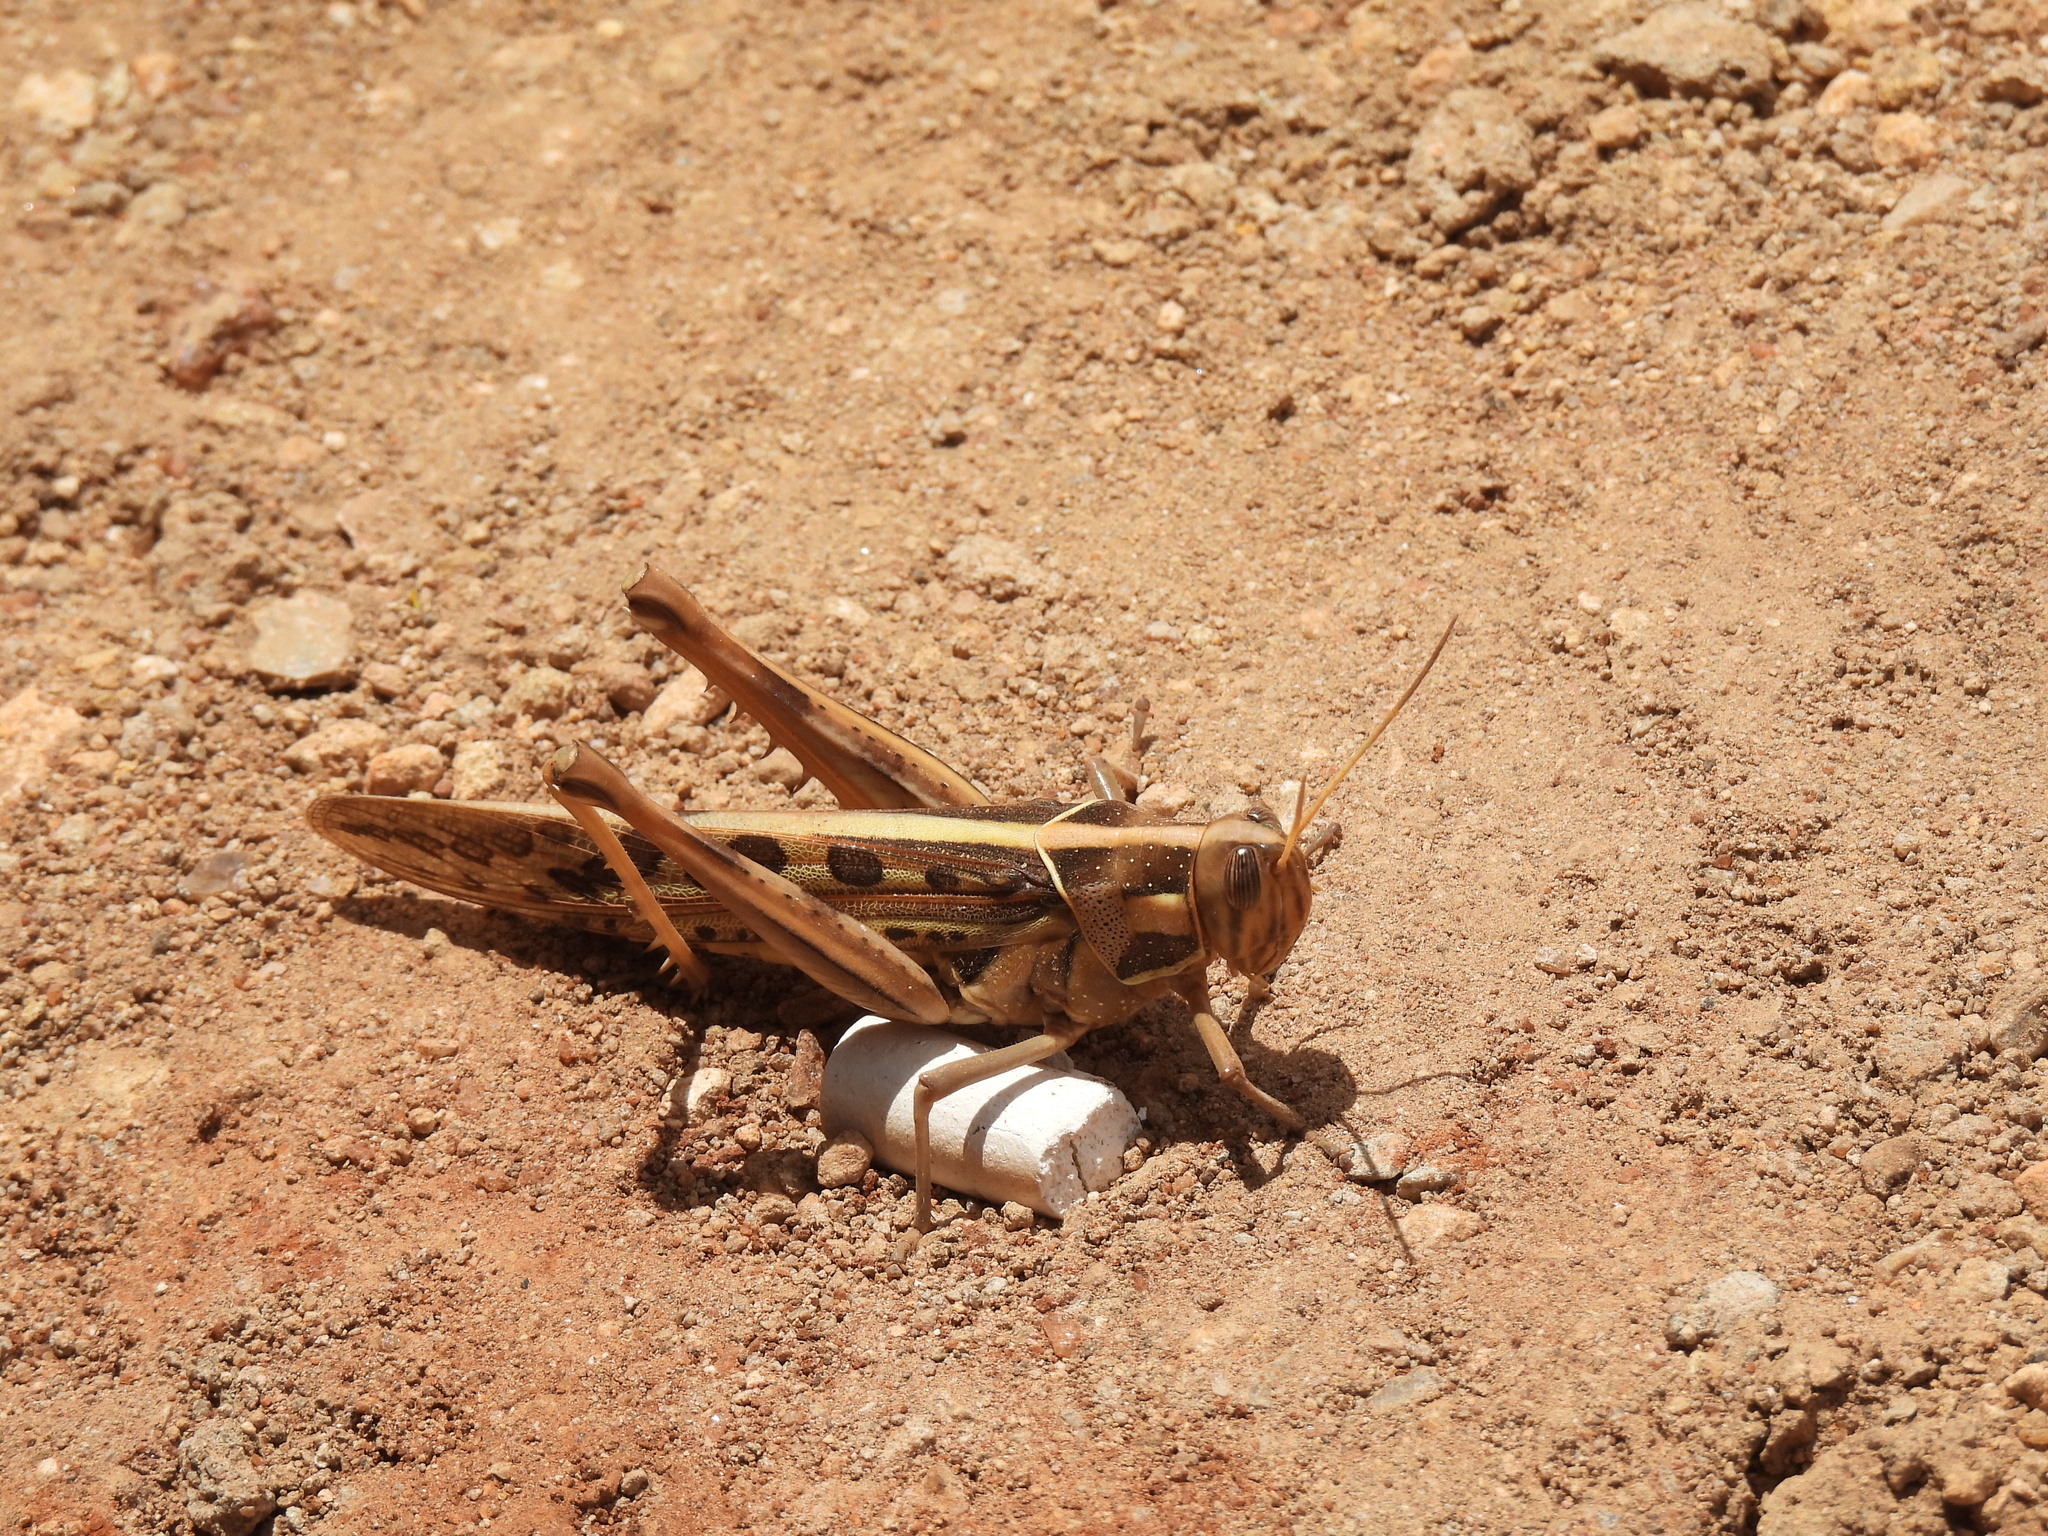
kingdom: Animalia
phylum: Arthropoda
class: Insecta
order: Orthoptera
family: Acrididae
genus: Cyrtacanthacris
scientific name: Cyrtacanthacris tatarica
